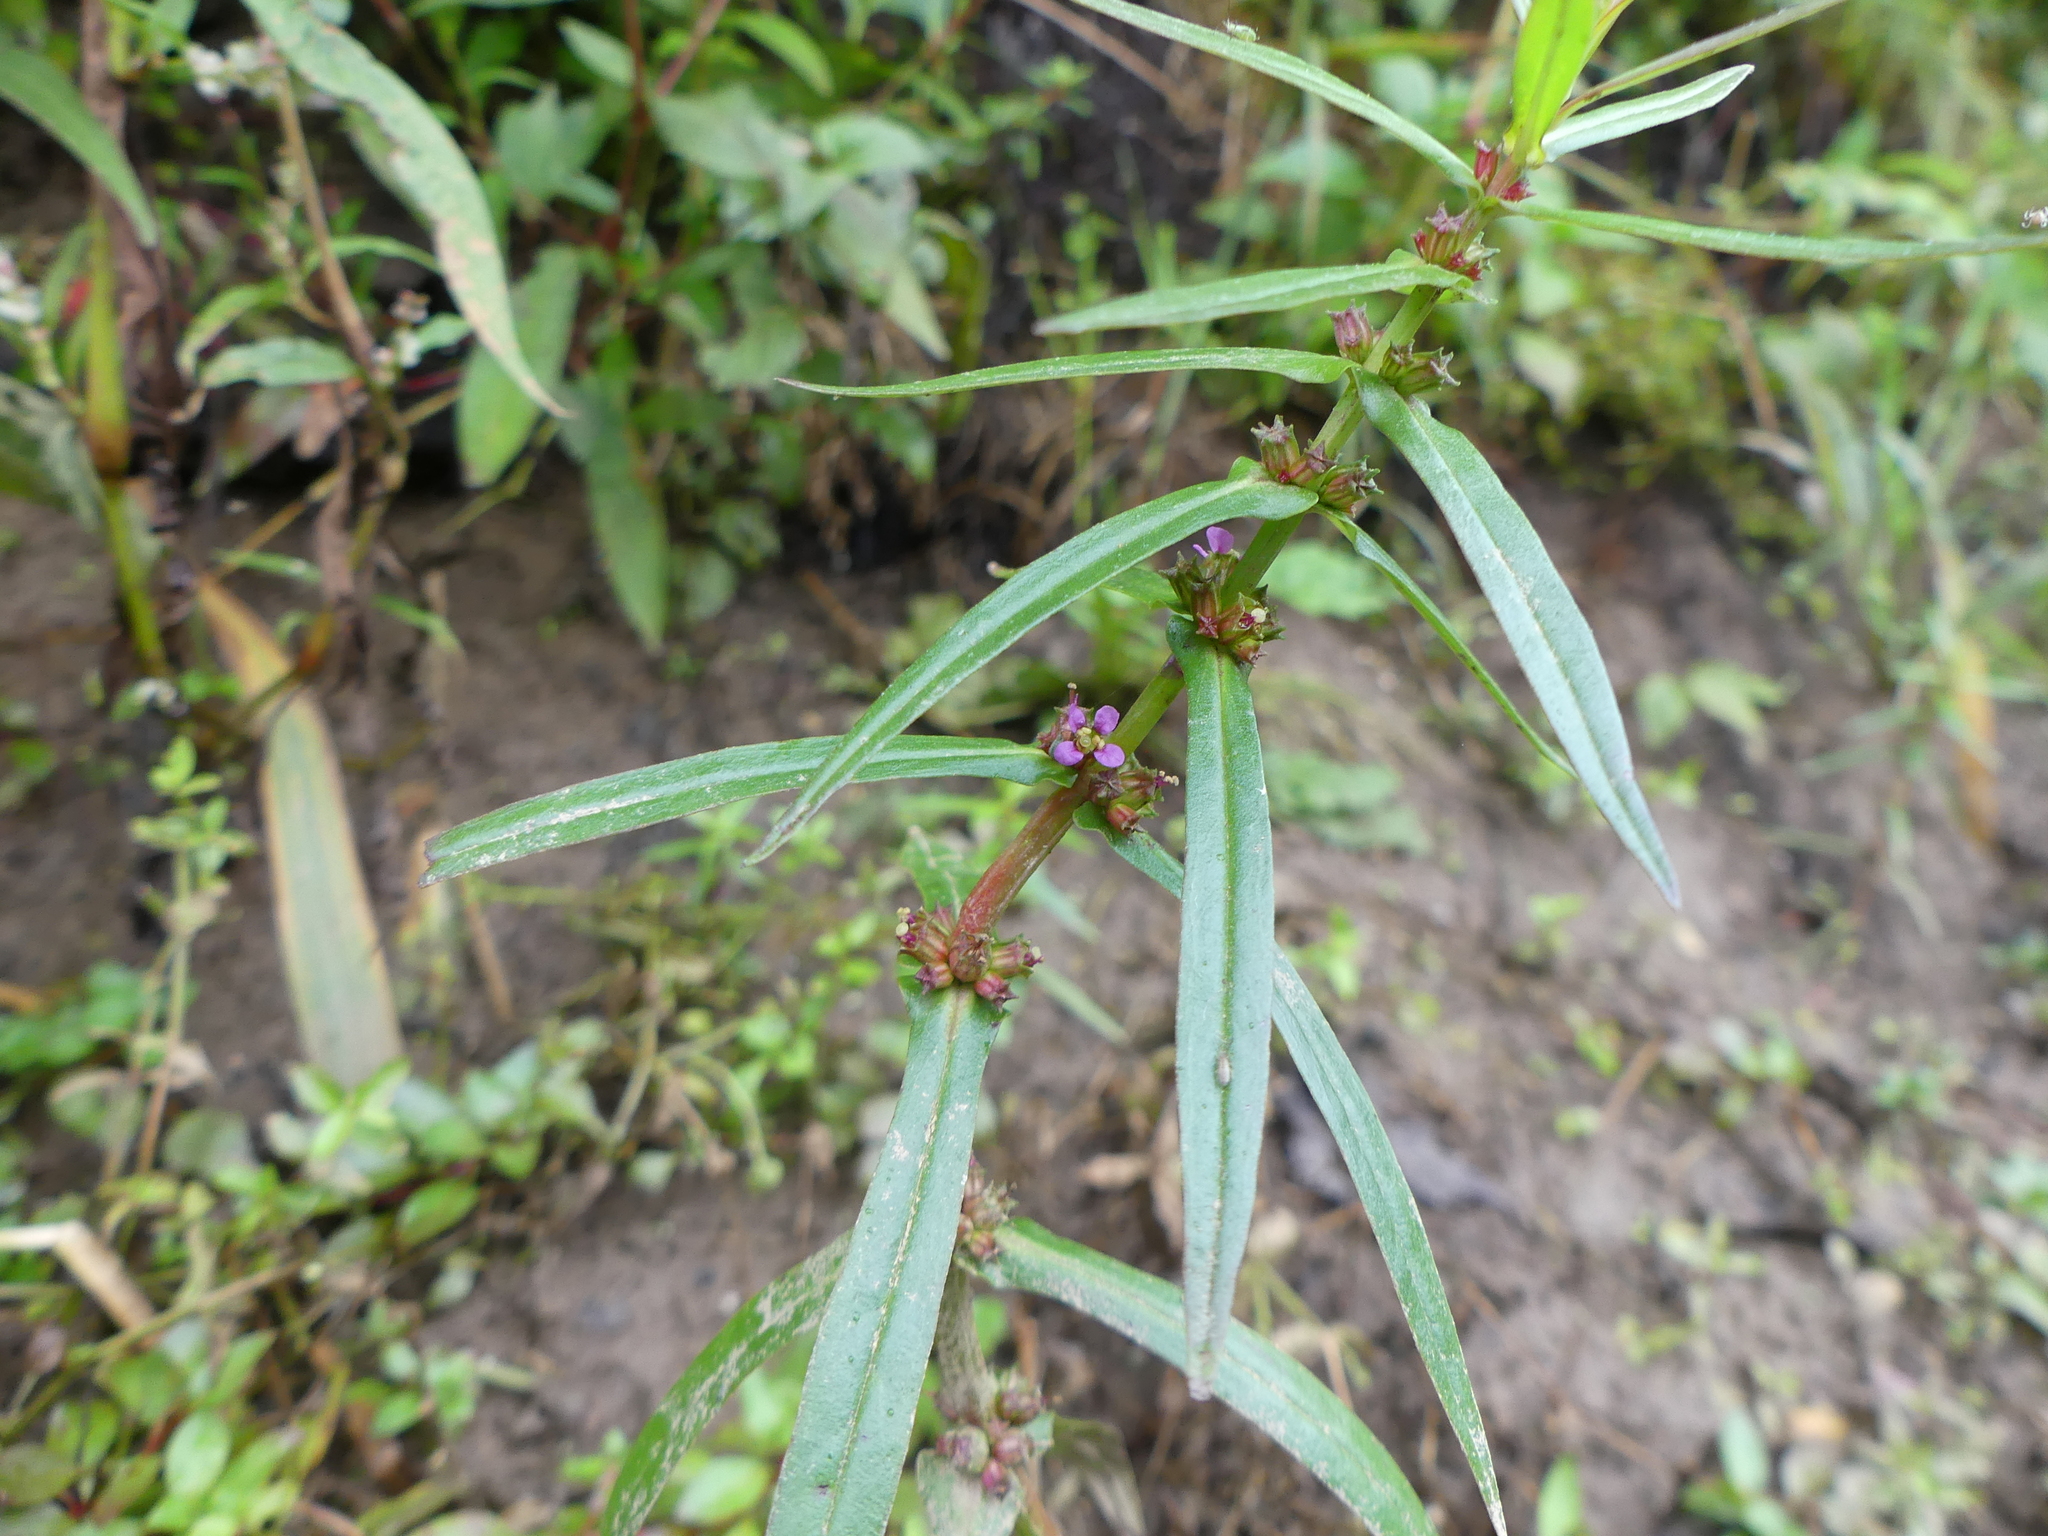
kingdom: Plantae
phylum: Tracheophyta
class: Magnoliopsida
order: Myrtales
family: Lythraceae
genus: Ammannia
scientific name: Ammannia coccinea
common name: Valley redstem
